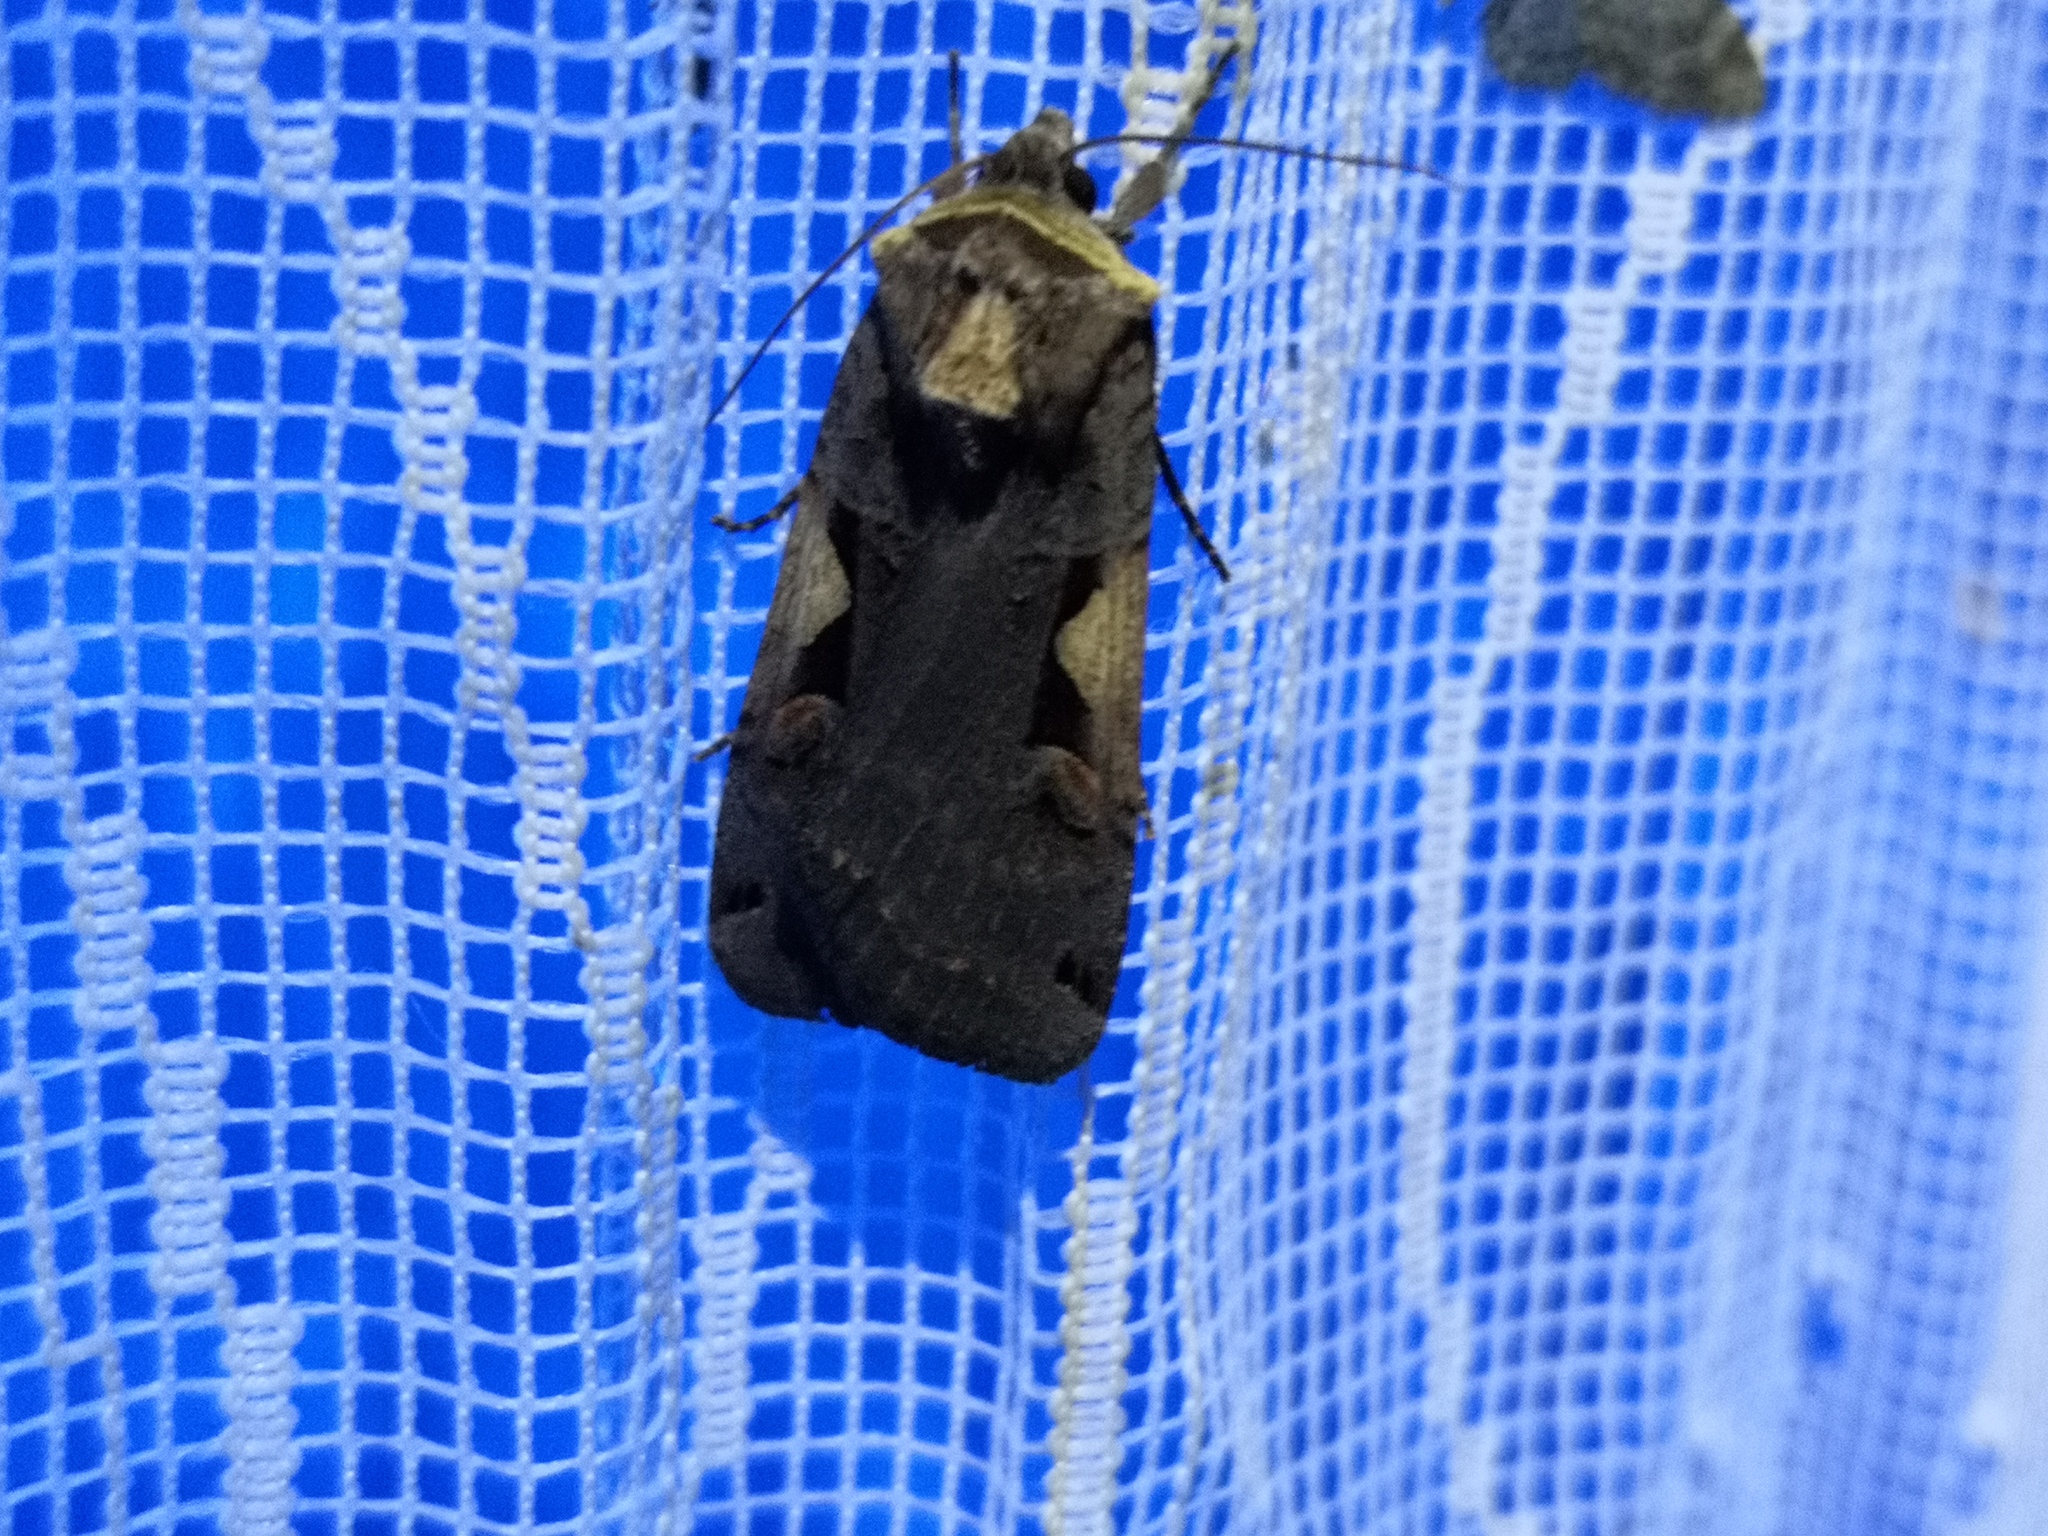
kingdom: Animalia
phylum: Arthropoda
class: Insecta
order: Lepidoptera
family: Noctuidae
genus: Xestia
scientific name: Xestia c-nigrum
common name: Setaceous hebrew character
